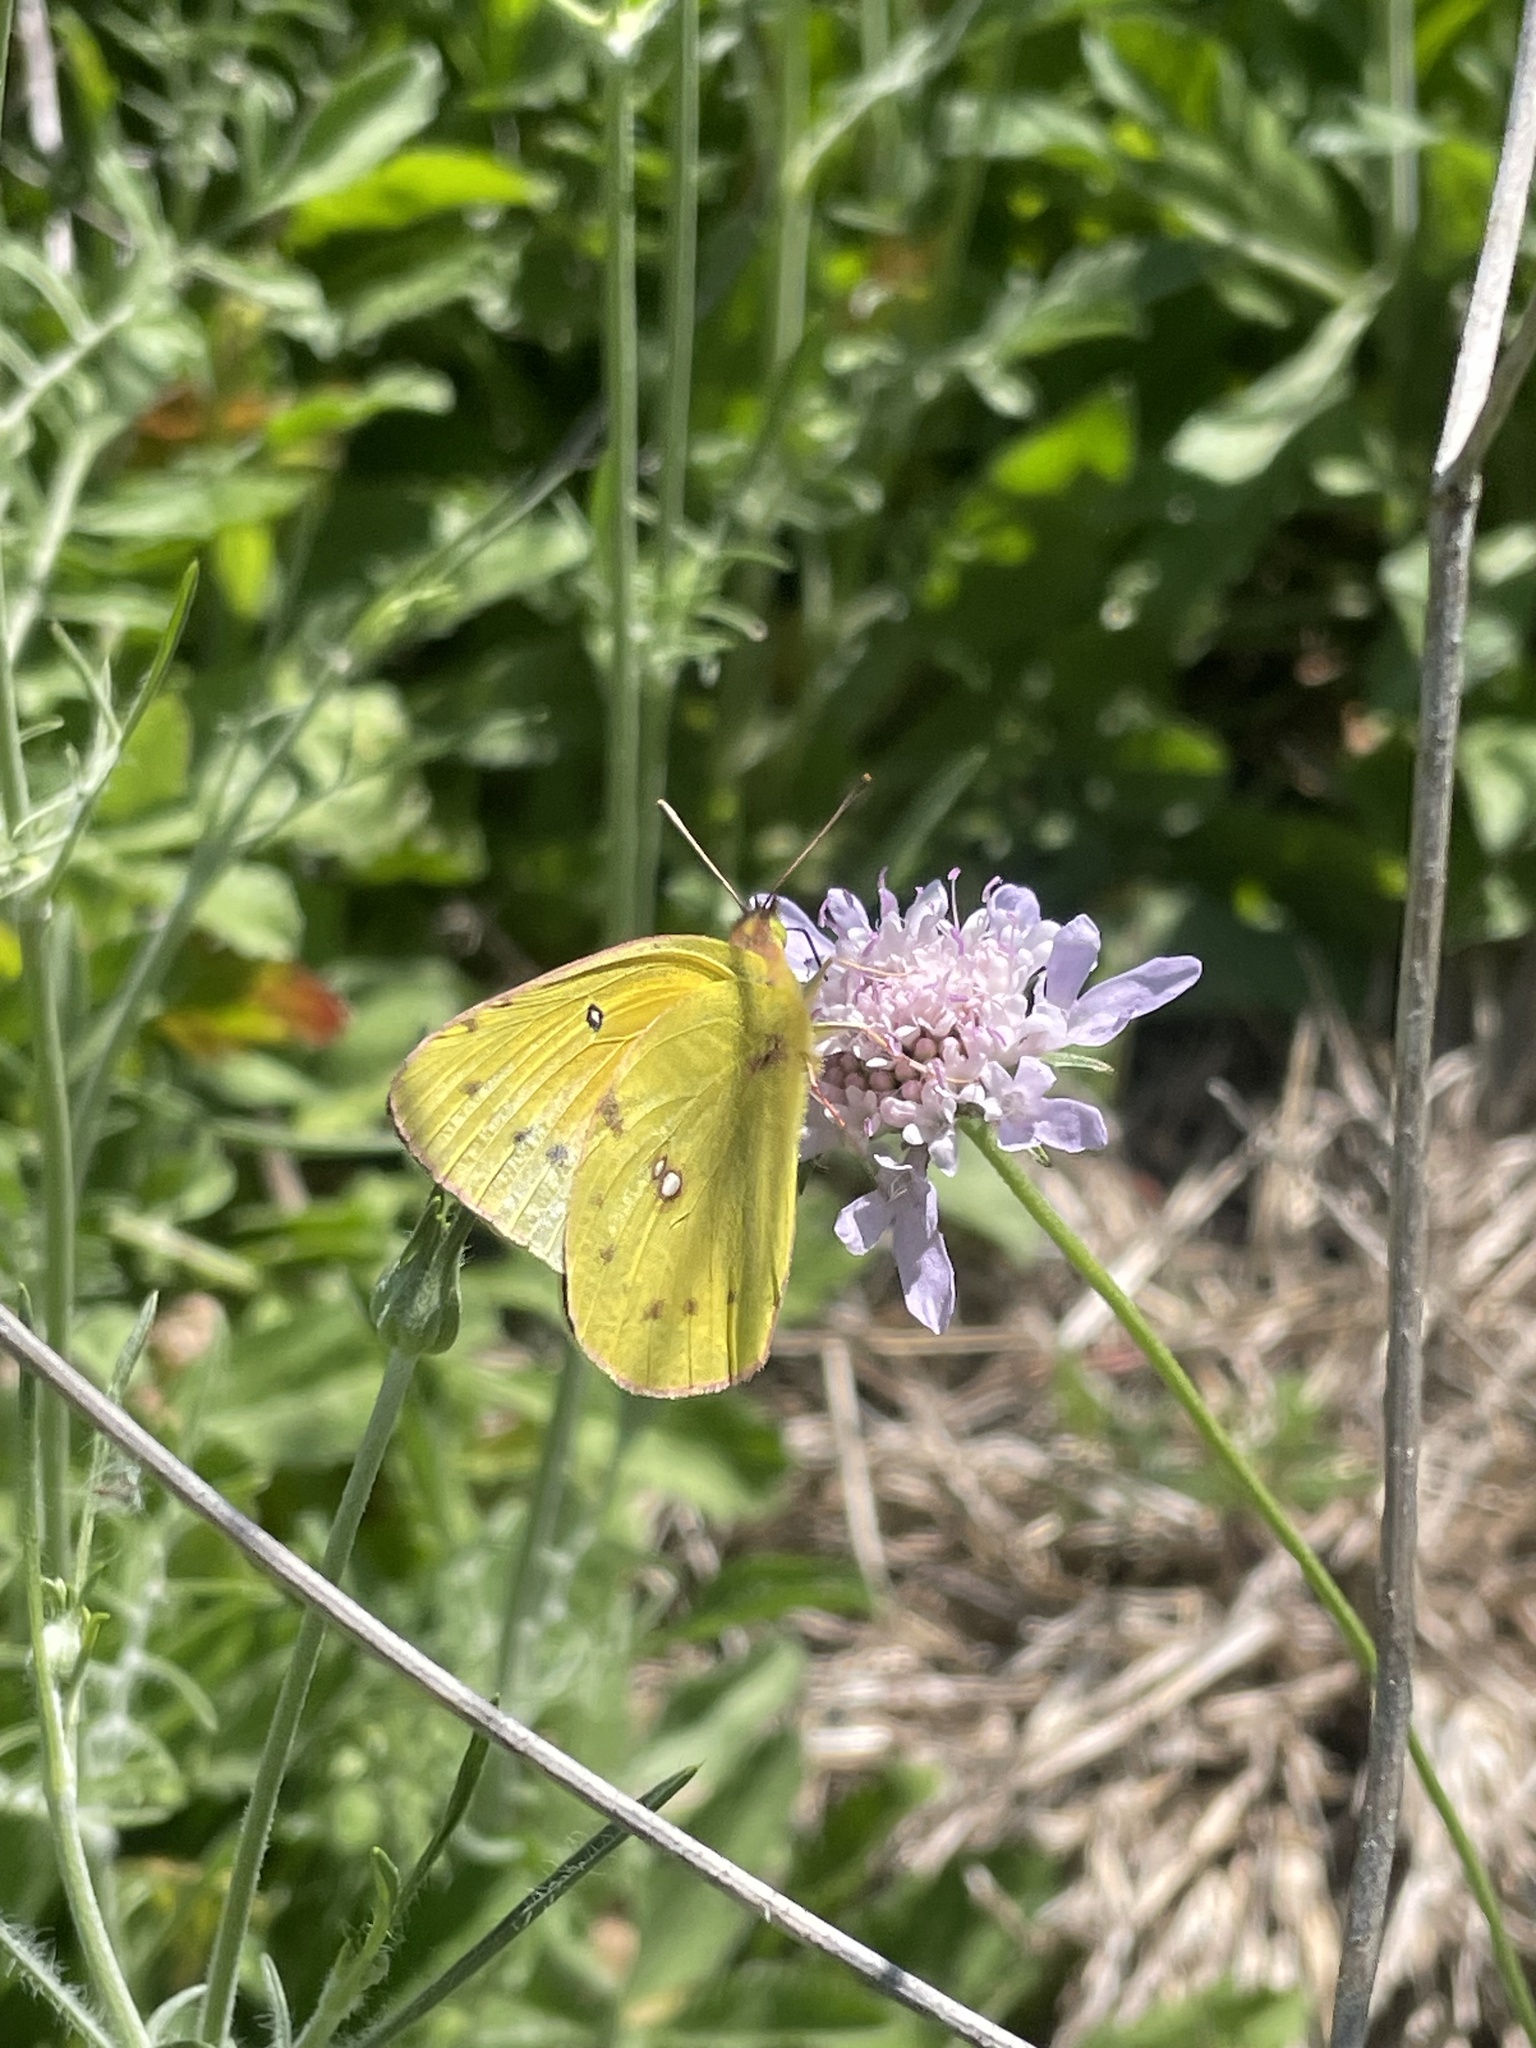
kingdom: Animalia
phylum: Arthropoda
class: Insecta
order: Lepidoptera
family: Pieridae
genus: Colias
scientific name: Colias eurytheme
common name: Alfalfa butterfly
